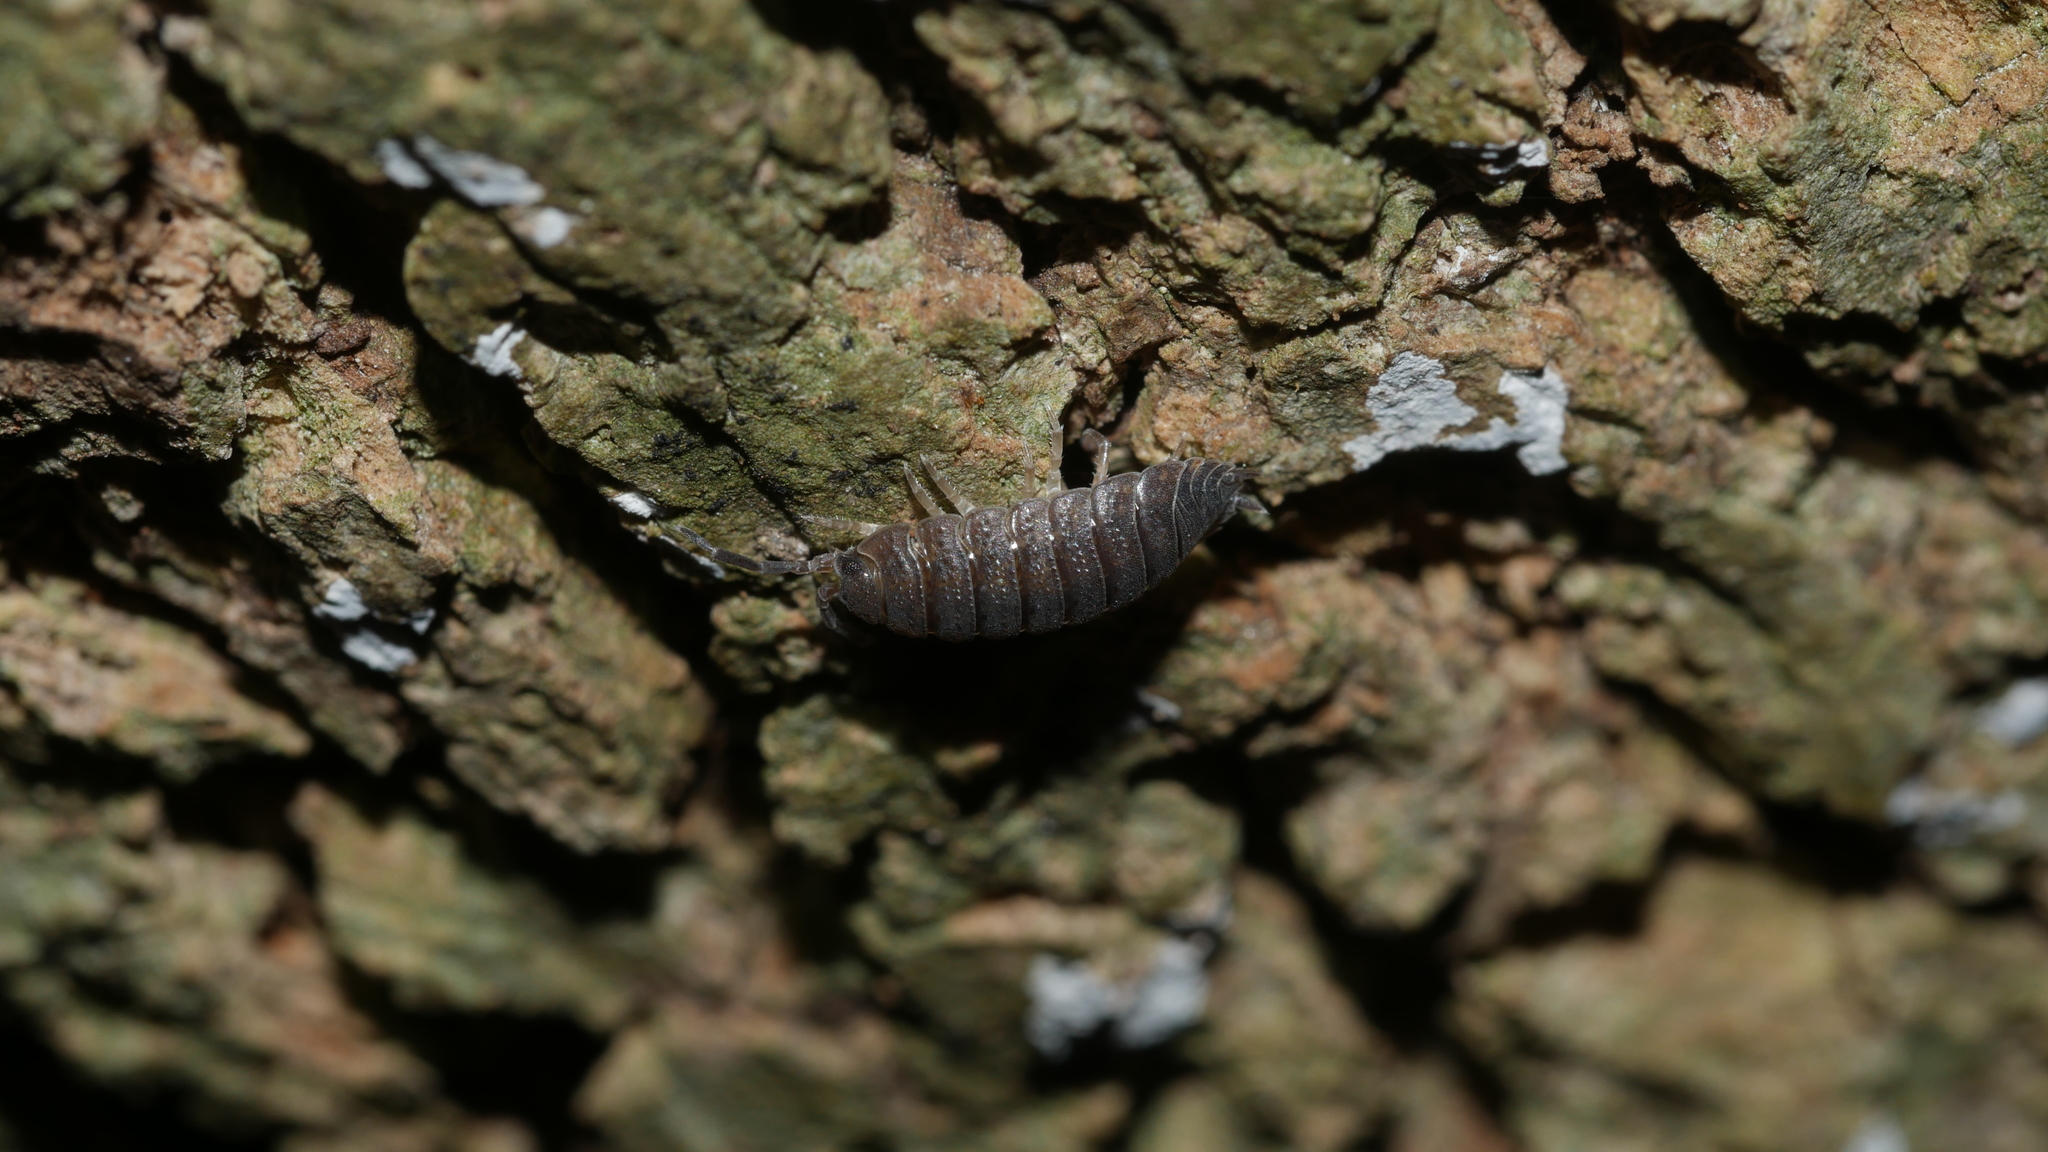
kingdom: Animalia
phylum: Arthropoda
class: Malacostraca
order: Isopoda
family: Porcellionidae
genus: Porcellio
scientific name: Porcellio scaber
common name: Common rough woodlouse
